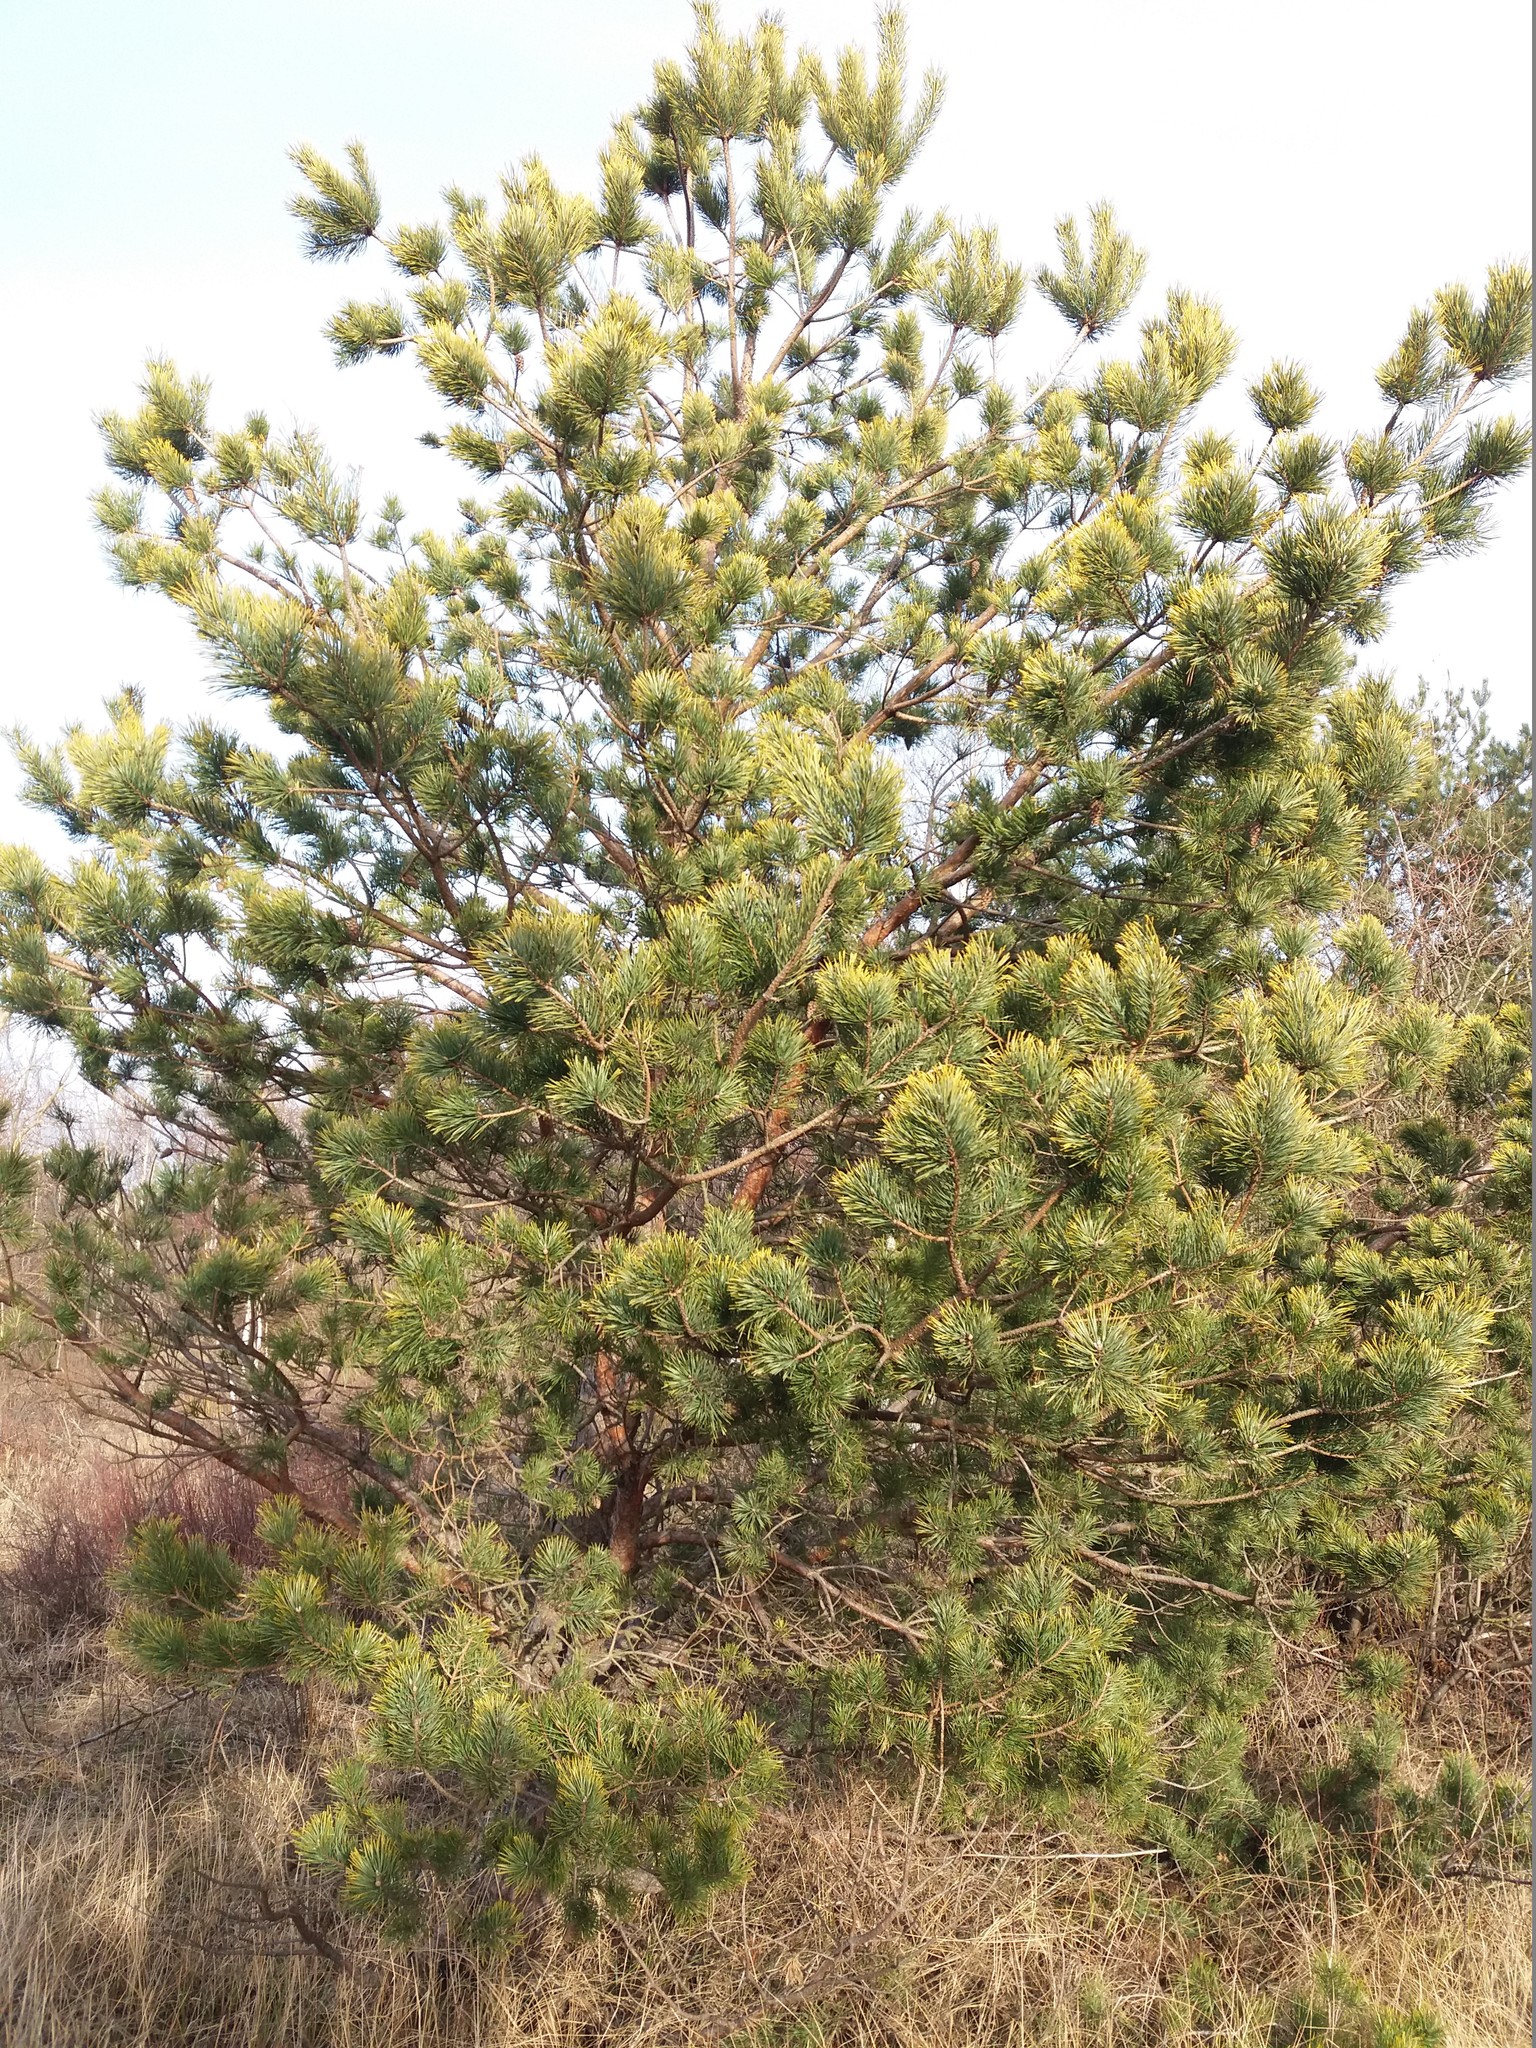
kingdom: Plantae
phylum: Tracheophyta
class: Pinopsida
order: Pinales
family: Pinaceae
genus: Pinus
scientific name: Pinus sylvestris
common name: Scots pine
